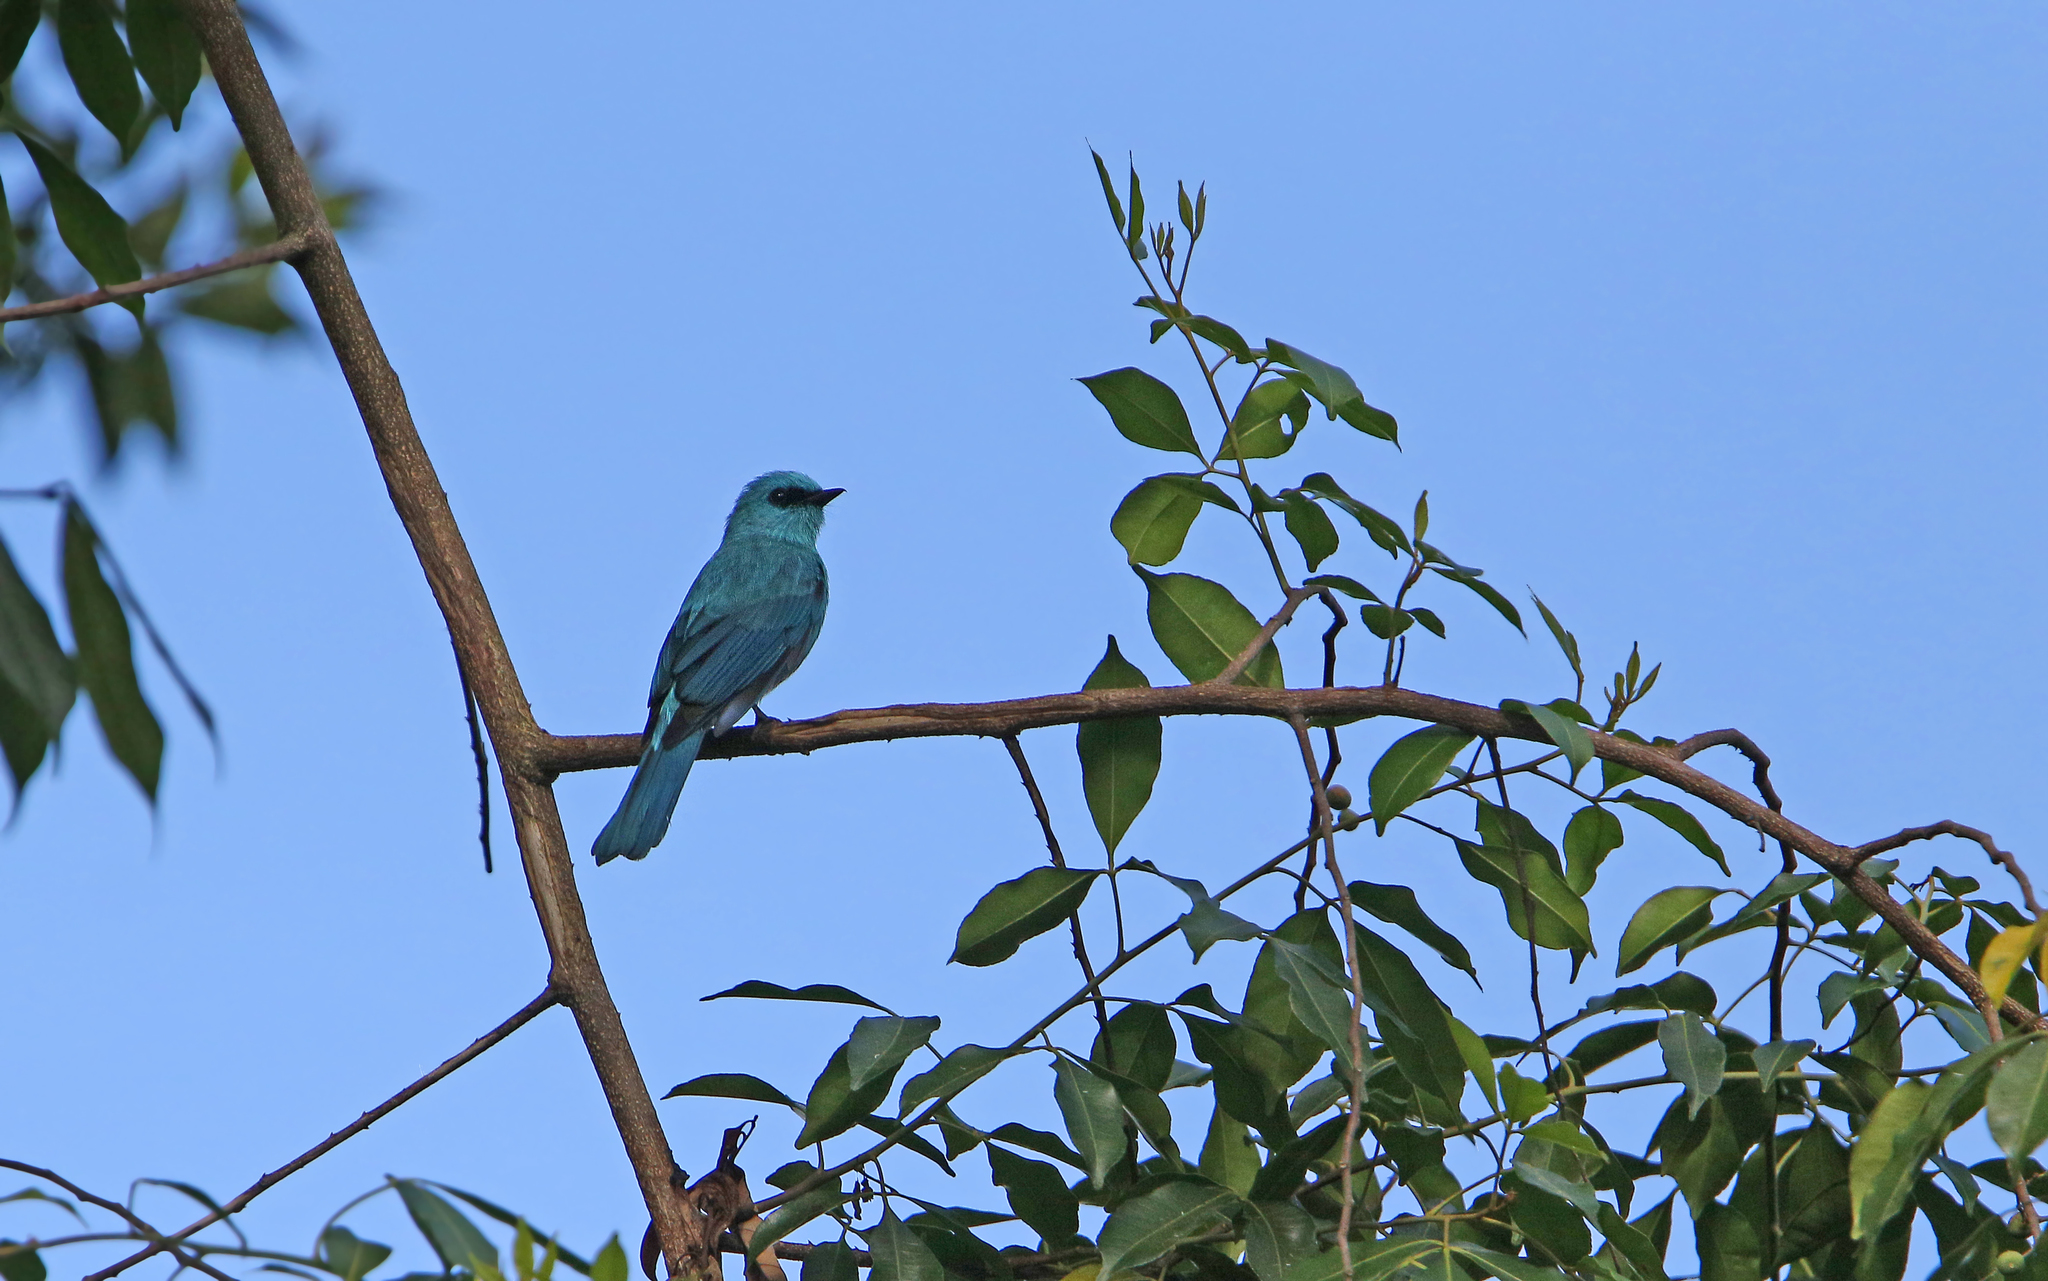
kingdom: Animalia
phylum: Chordata
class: Aves
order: Passeriformes
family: Muscicapidae
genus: Eumyias
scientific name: Eumyias thalassinus
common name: Verditer flycatcher
